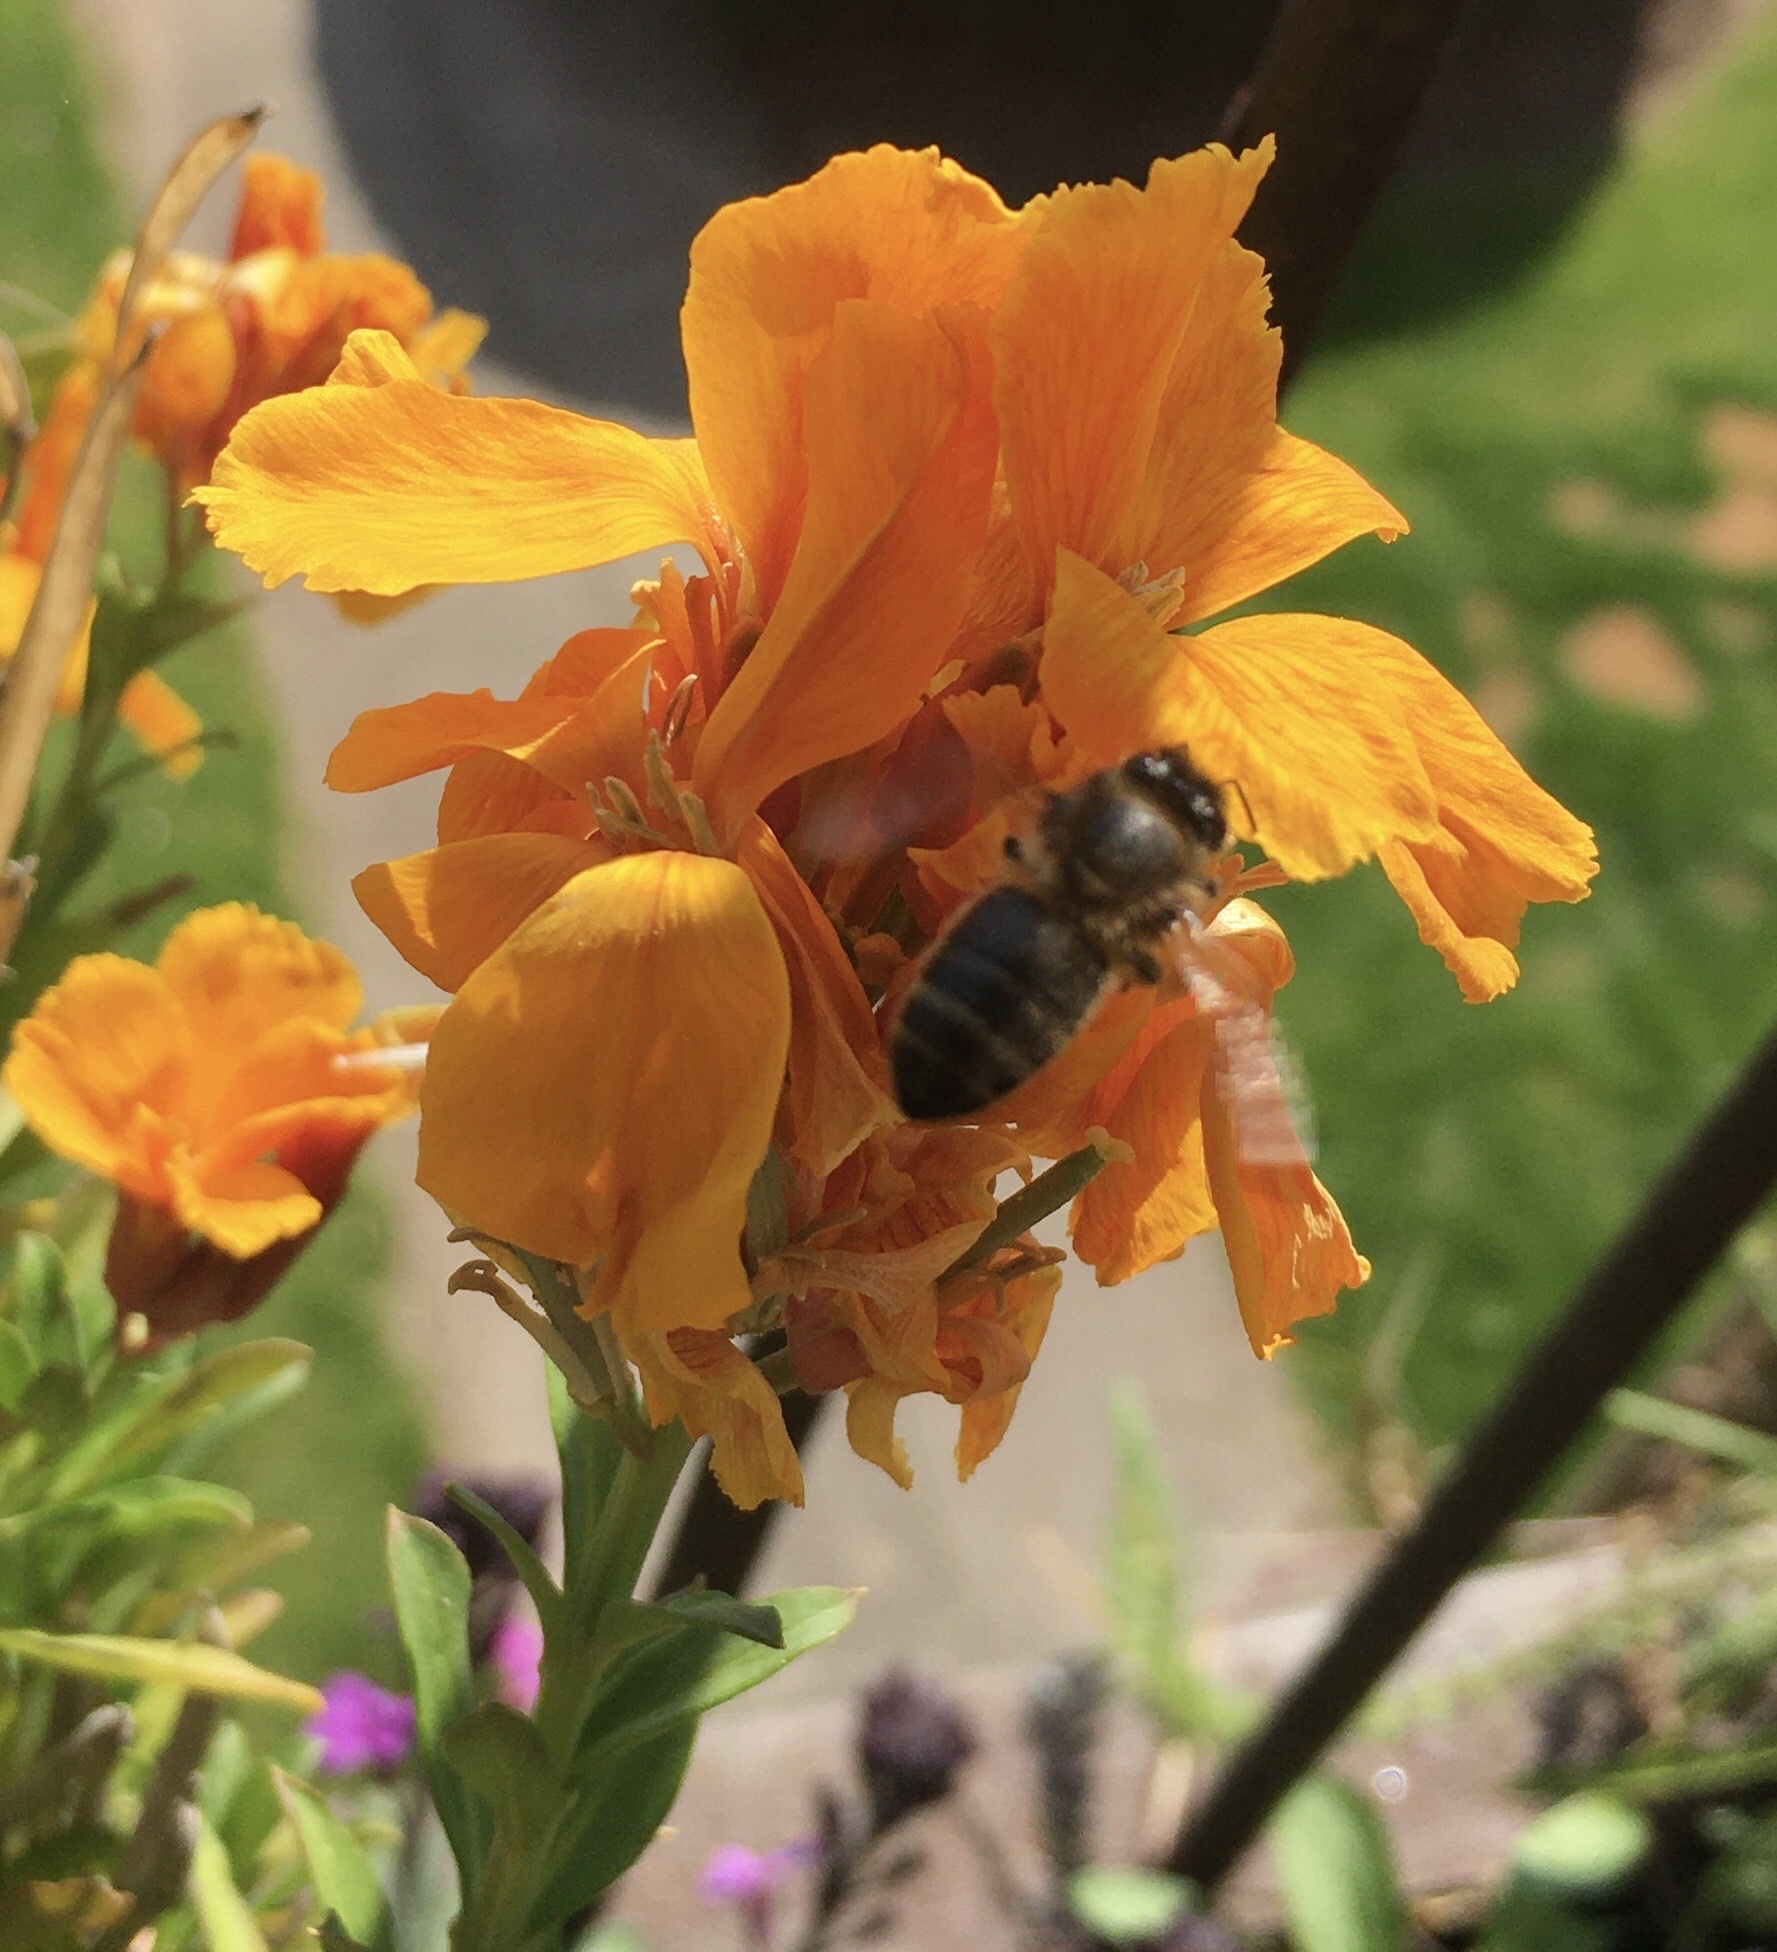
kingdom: Animalia
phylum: Arthropoda
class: Insecta
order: Hymenoptera
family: Apidae
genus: Apis
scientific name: Apis mellifera
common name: Honey bee
